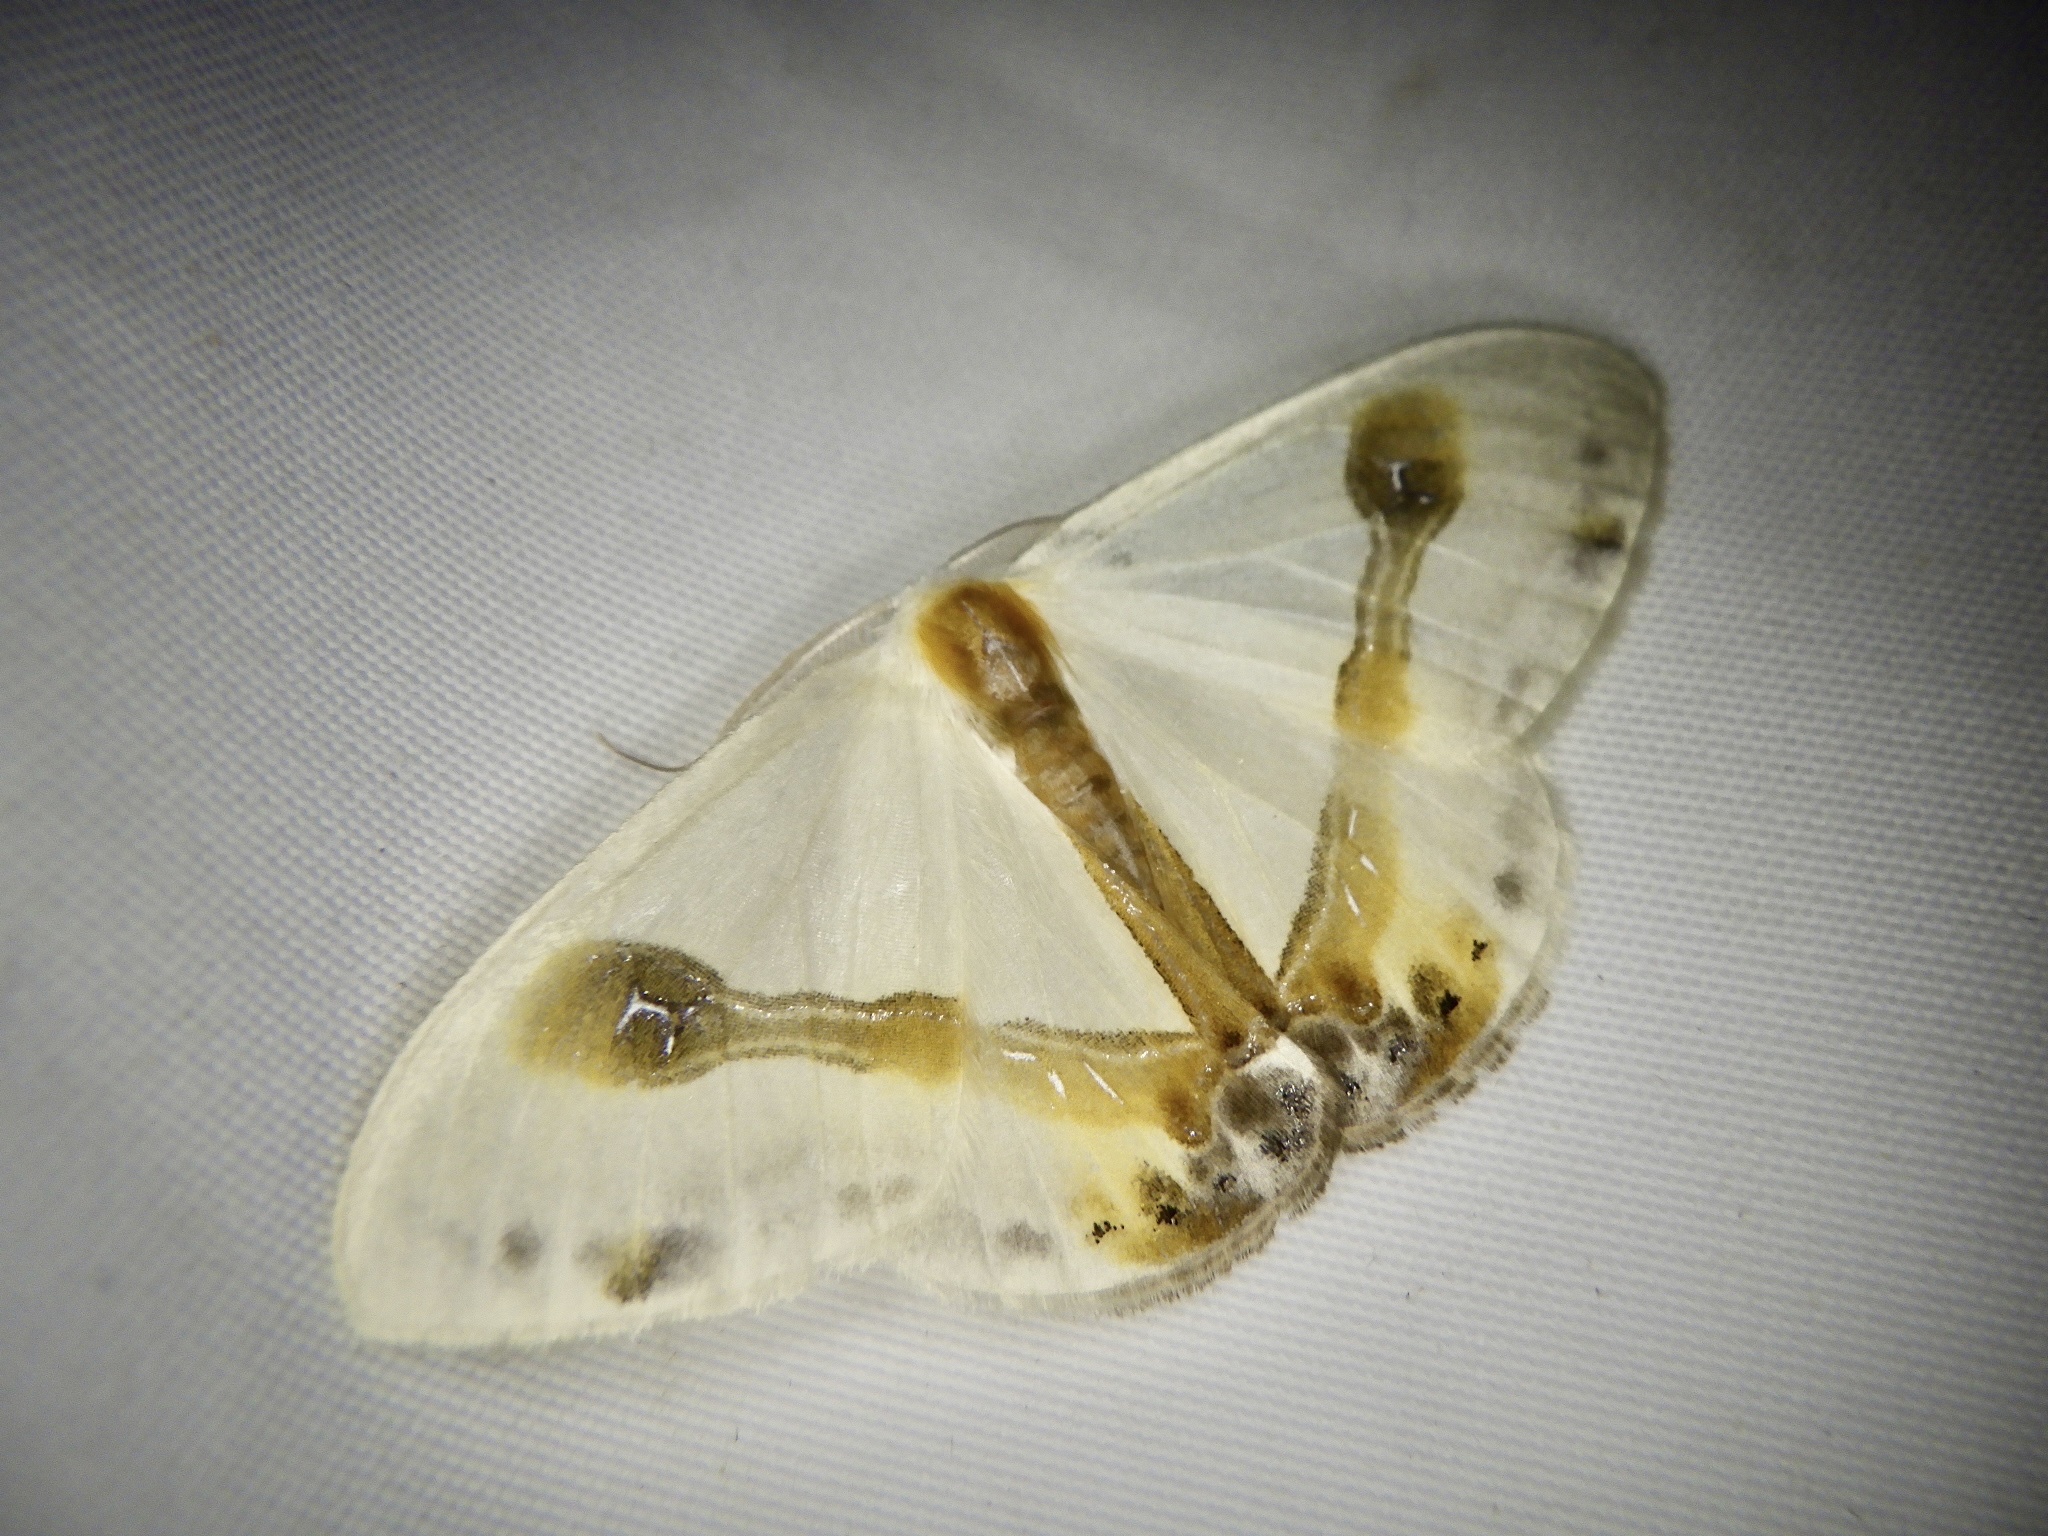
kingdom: Animalia
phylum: Arthropoda
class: Insecta
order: Lepidoptera
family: Drepanidae
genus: Macrocilix
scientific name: Macrocilix mysticata
